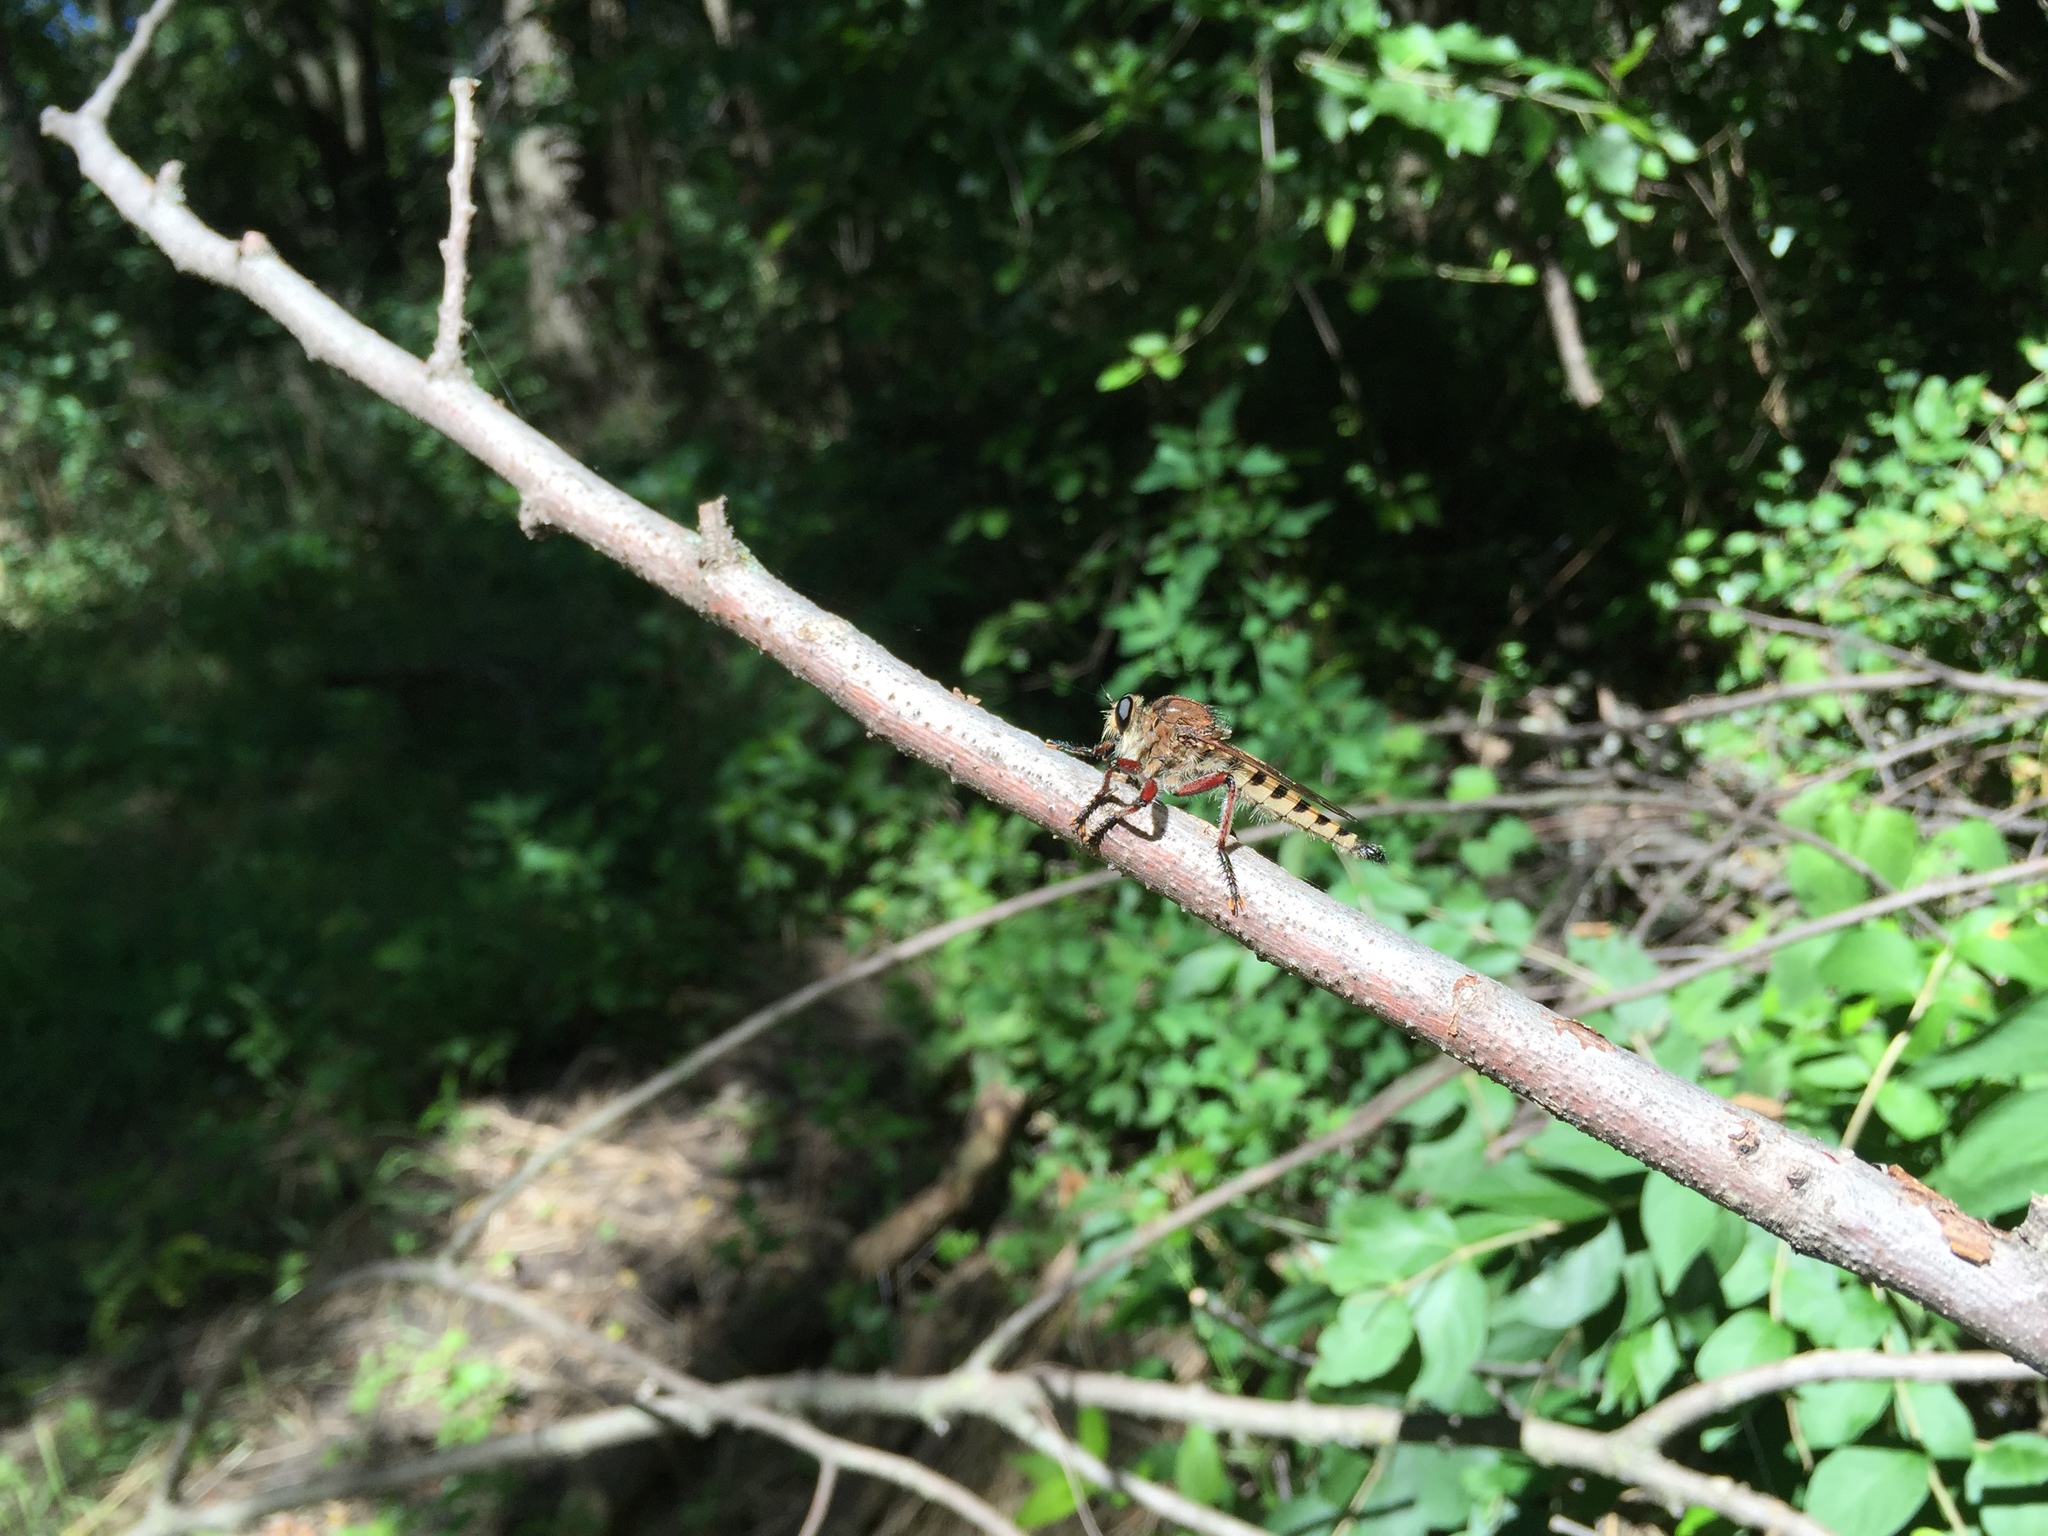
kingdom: Animalia
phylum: Arthropoda
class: Insecta
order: Diptera
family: Asilidae
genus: Promachus
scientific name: Promachus hinei
